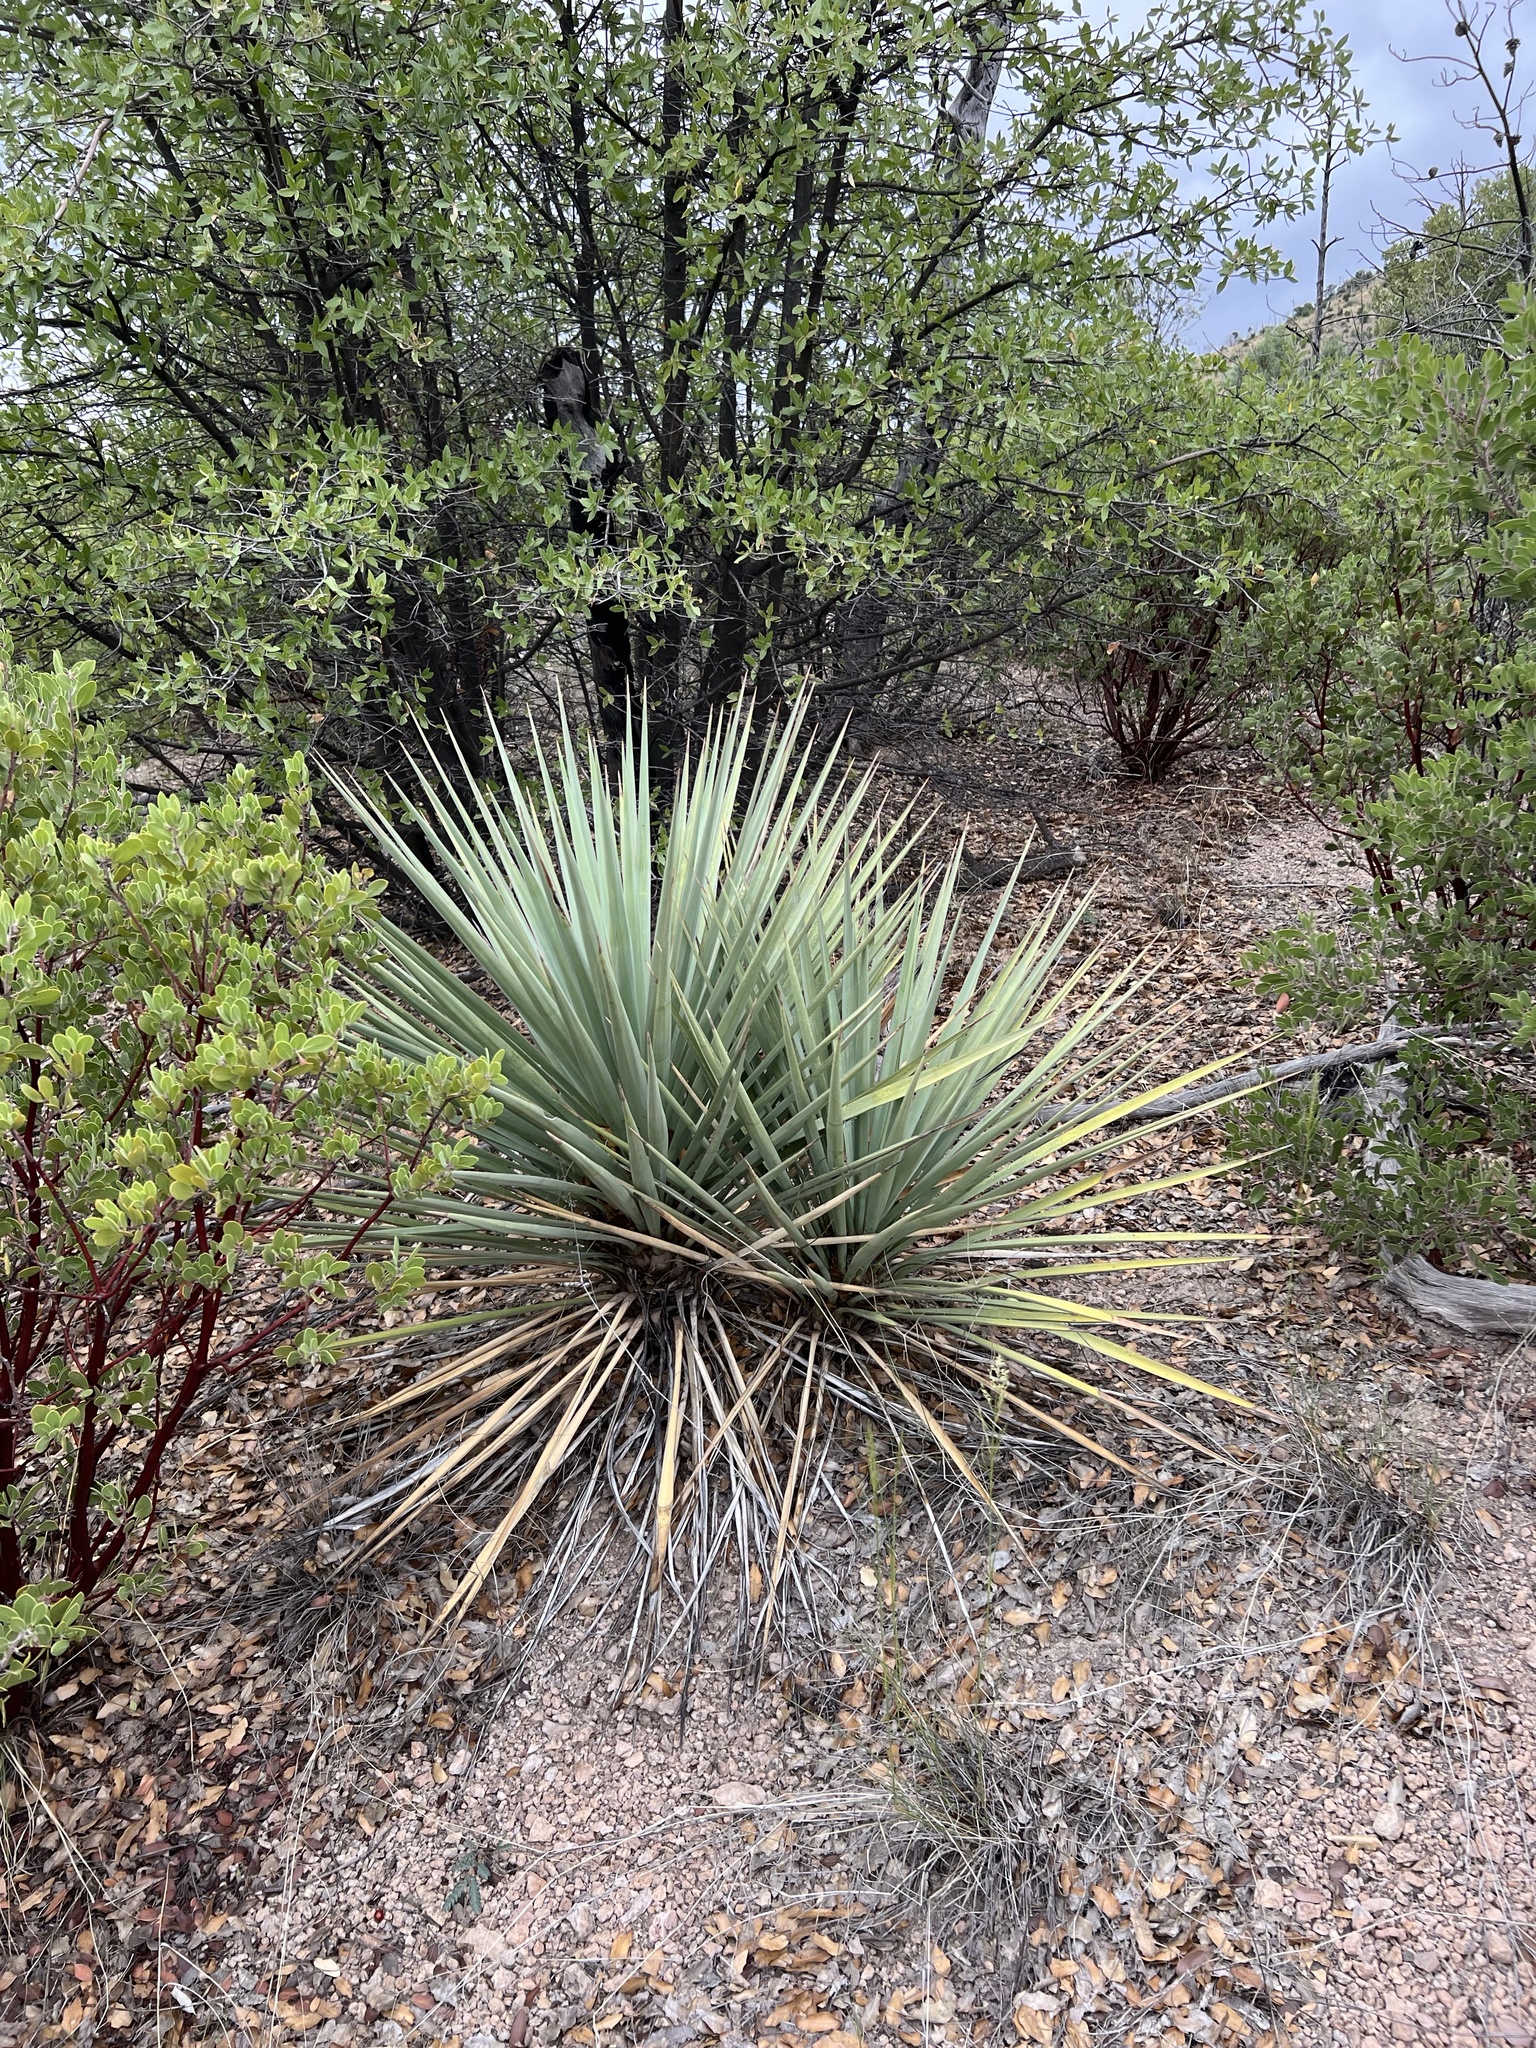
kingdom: Plantae
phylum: Tracheophyta
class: Liliopsida
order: Asparagales
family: Asparagaceae
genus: Yucca
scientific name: Yucca schottii
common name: Hoary yucca
